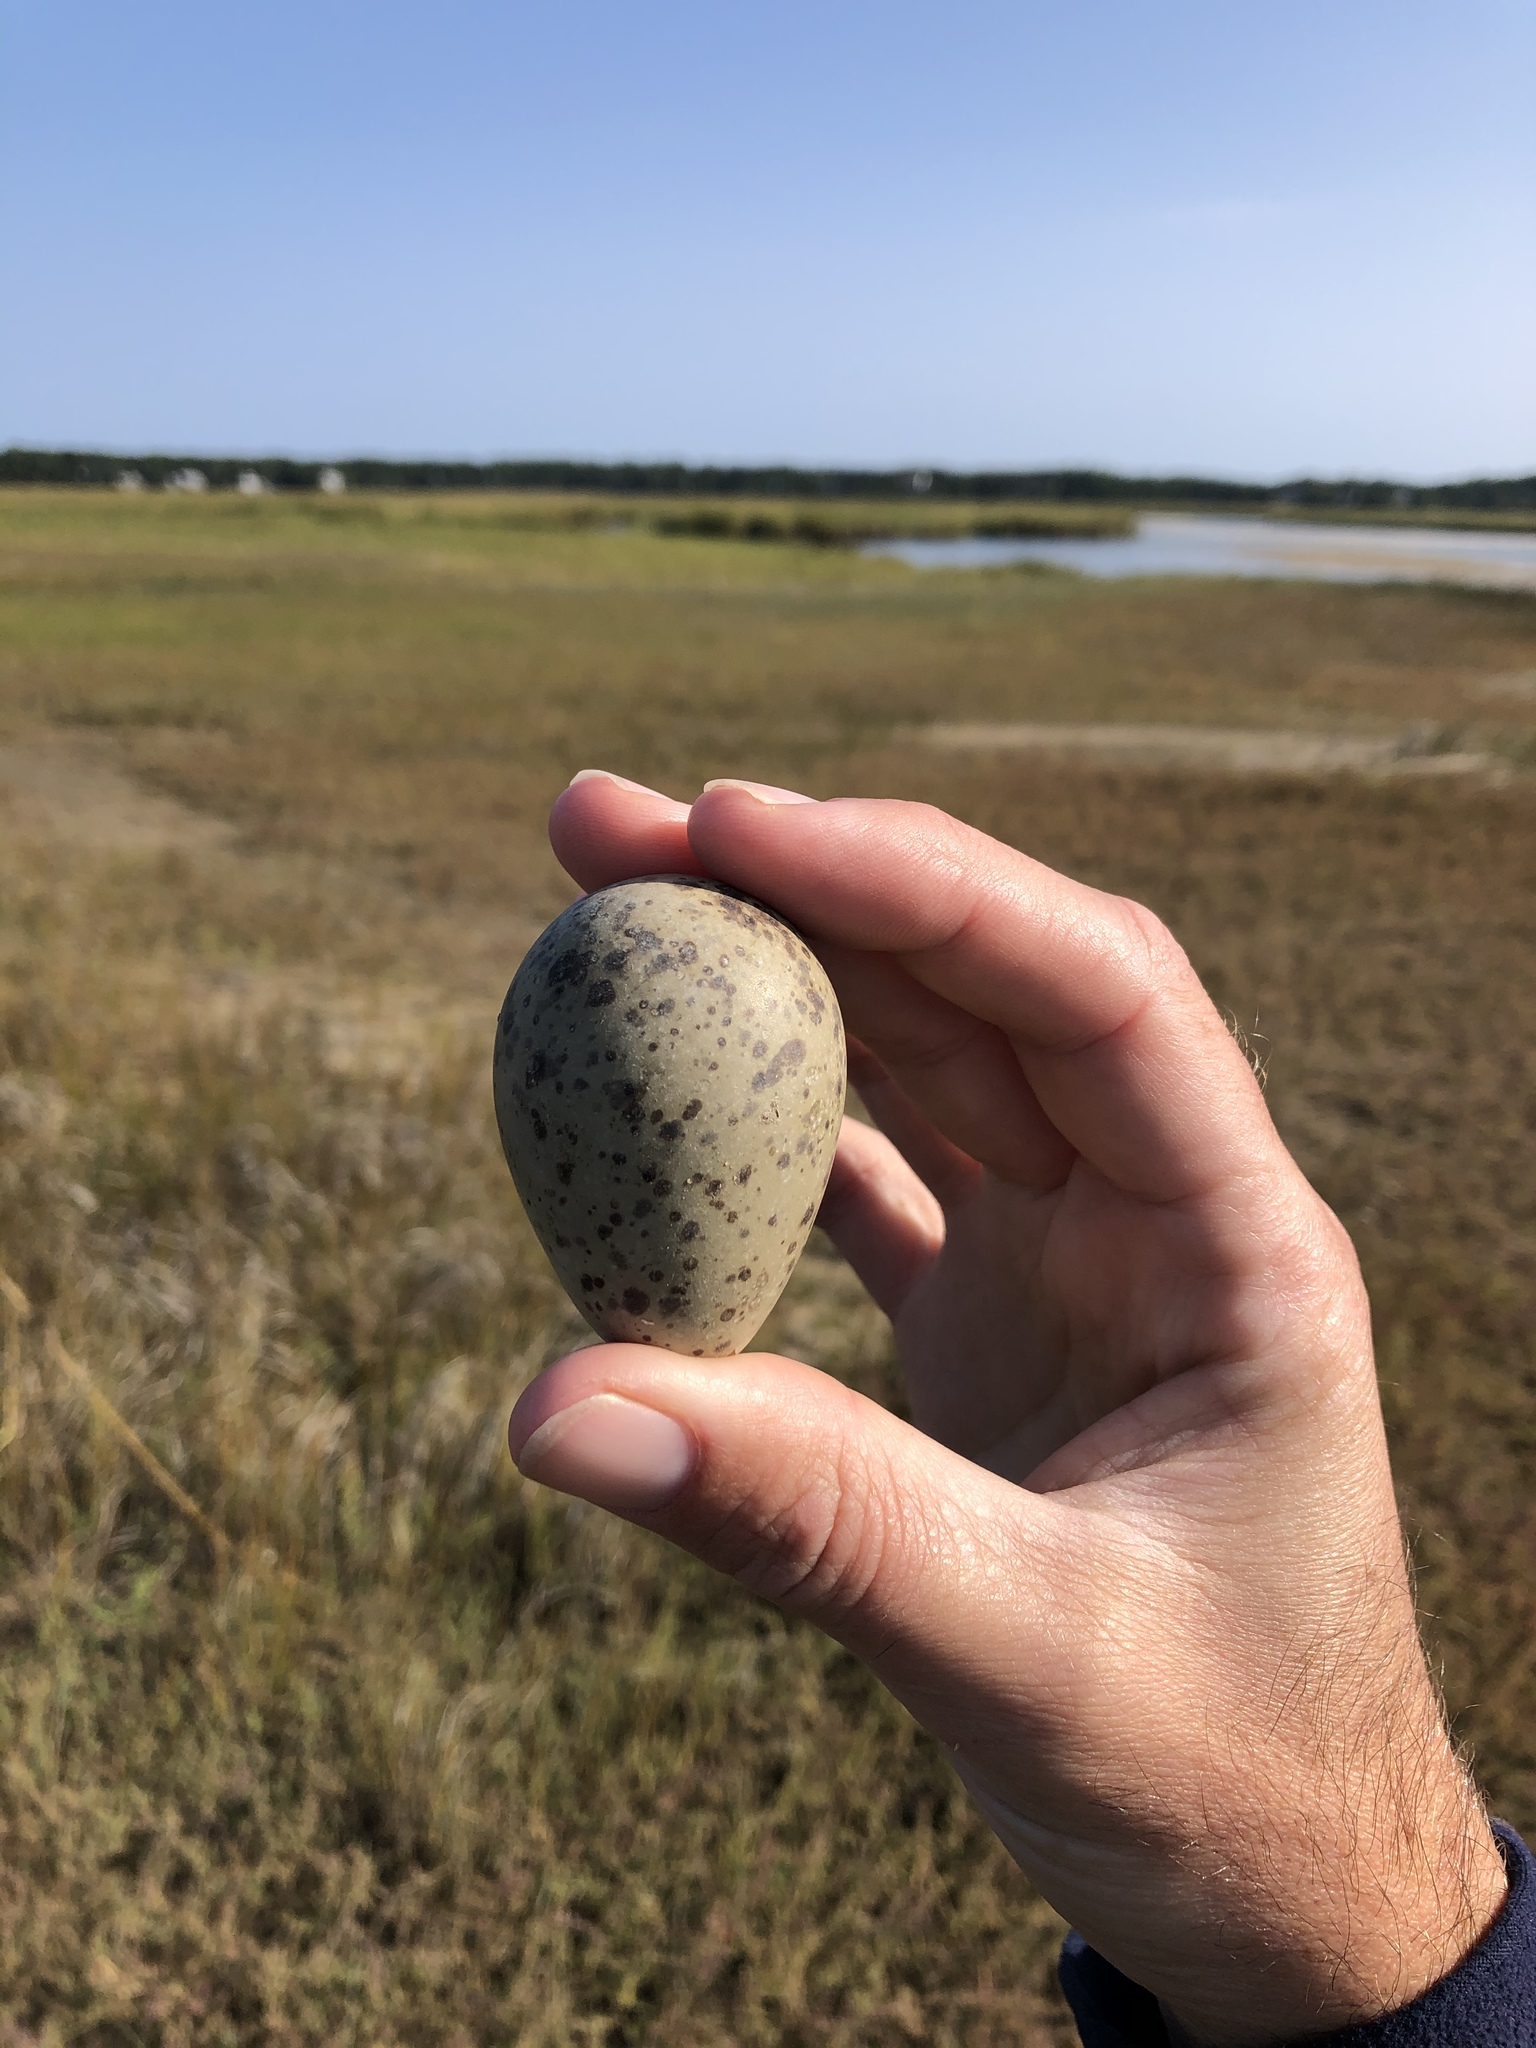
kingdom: Animalia
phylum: Chordata
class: Aves
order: Charadriiformes
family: Scolopacidae
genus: Tringa
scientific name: Tringa semipalmata
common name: Willet
